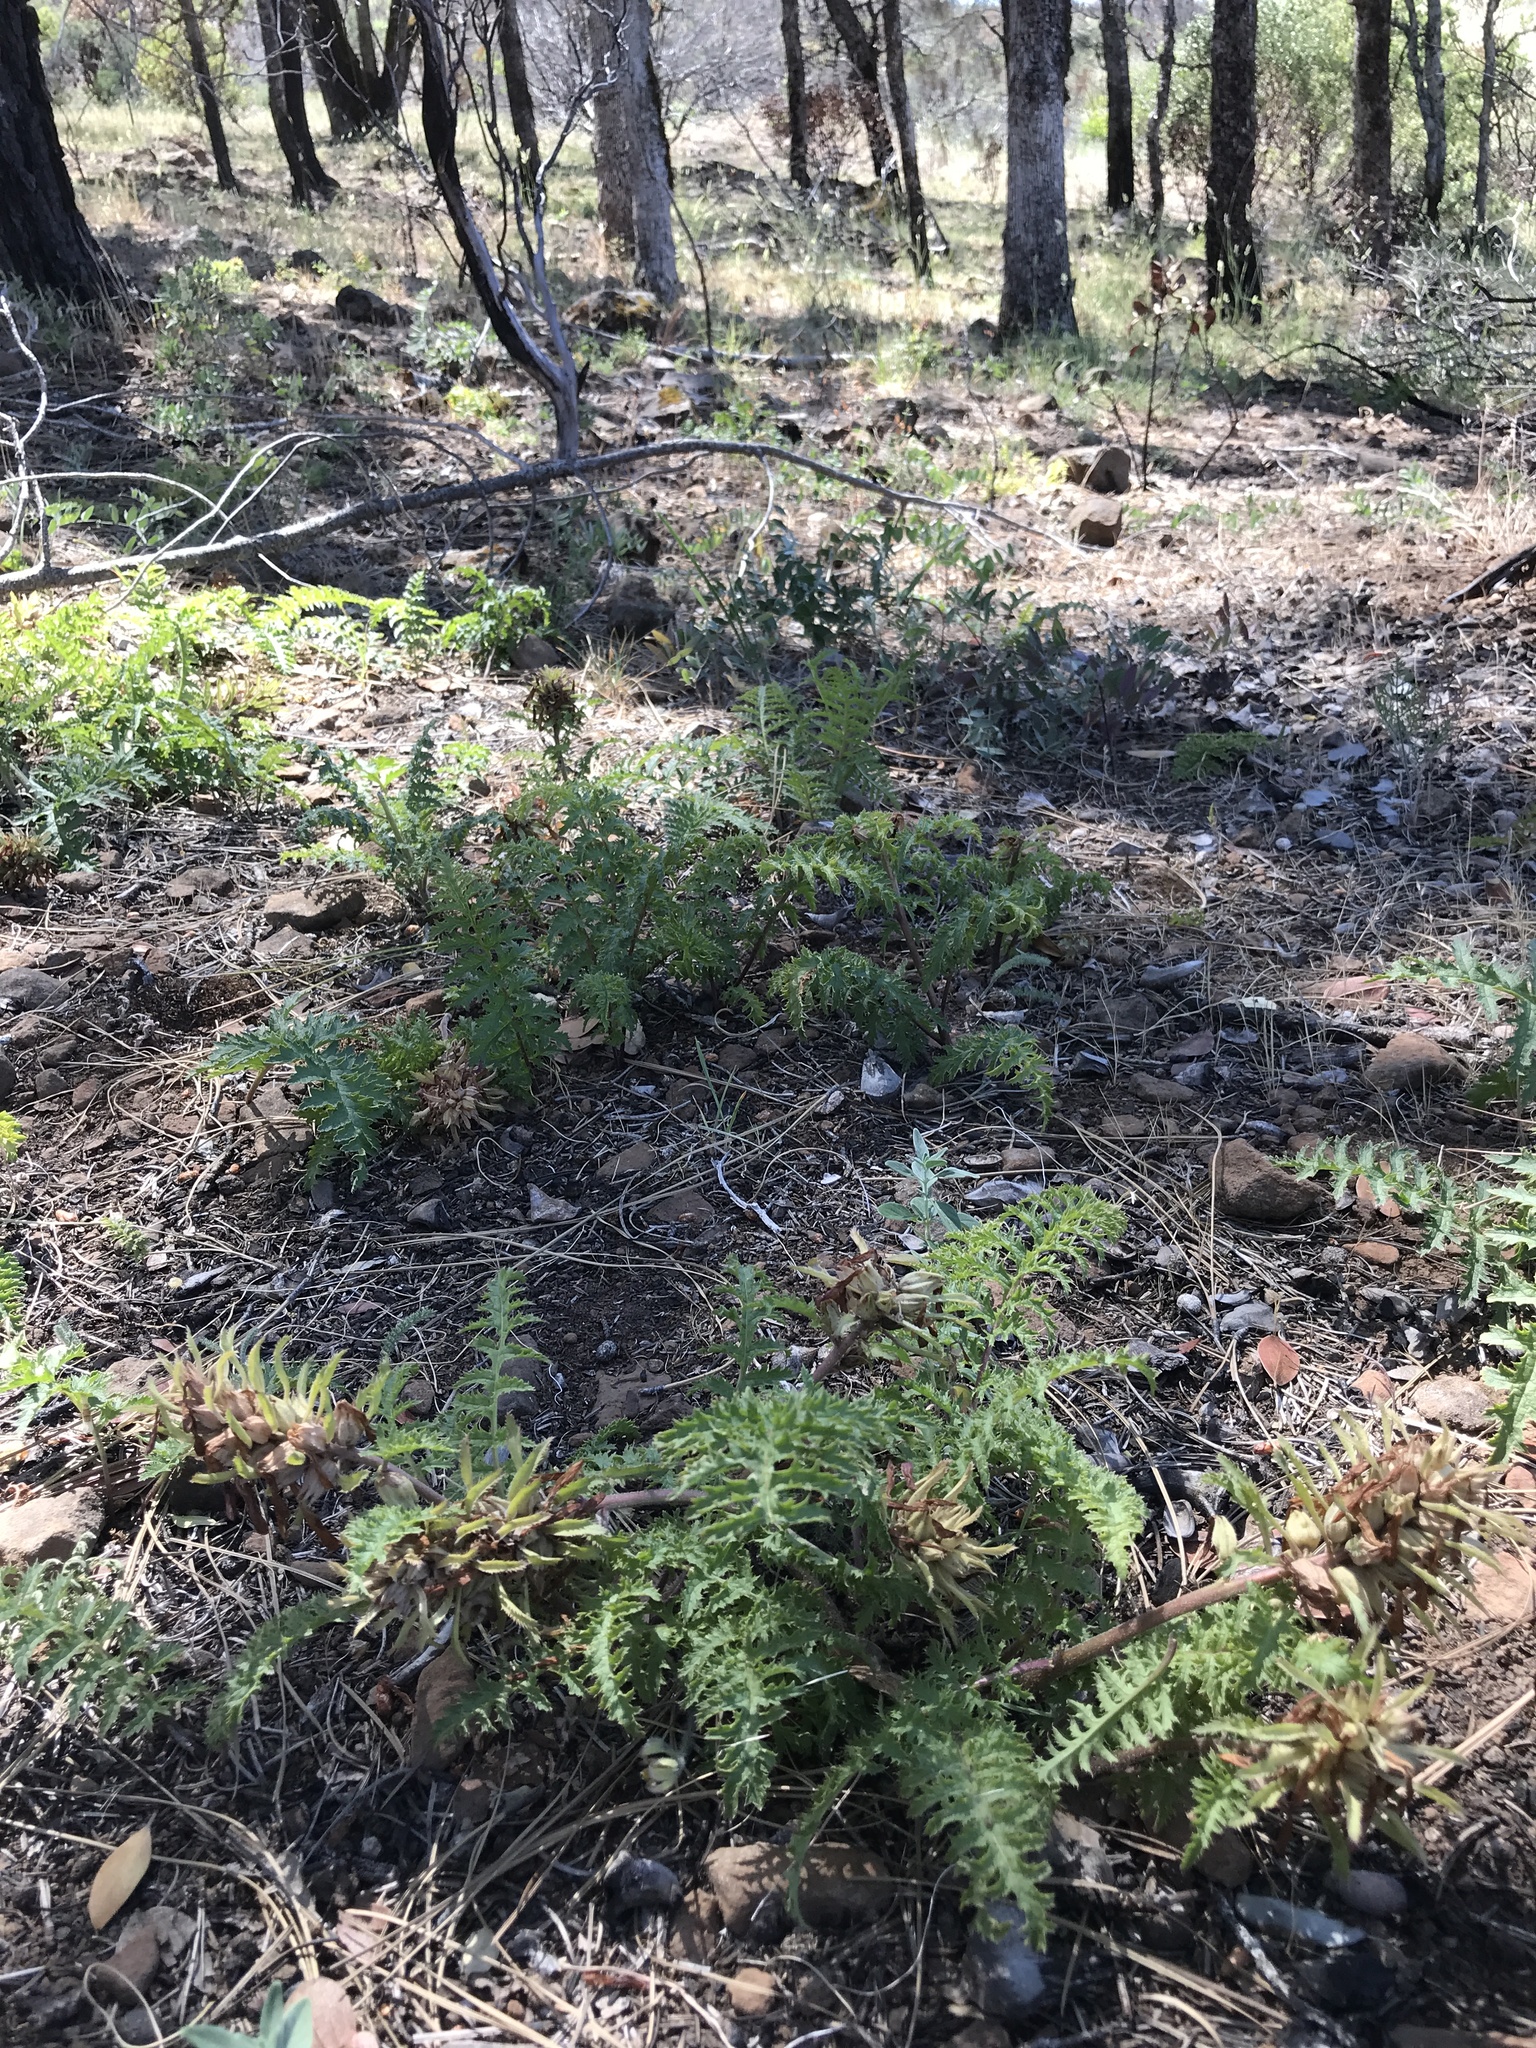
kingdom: Plantae
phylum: Tracheophyta
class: Magnoliopsida
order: Lamiales
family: Orobanchaceae
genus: Pedicularis
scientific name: Pedicularis densiflora
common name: Indian warrior
